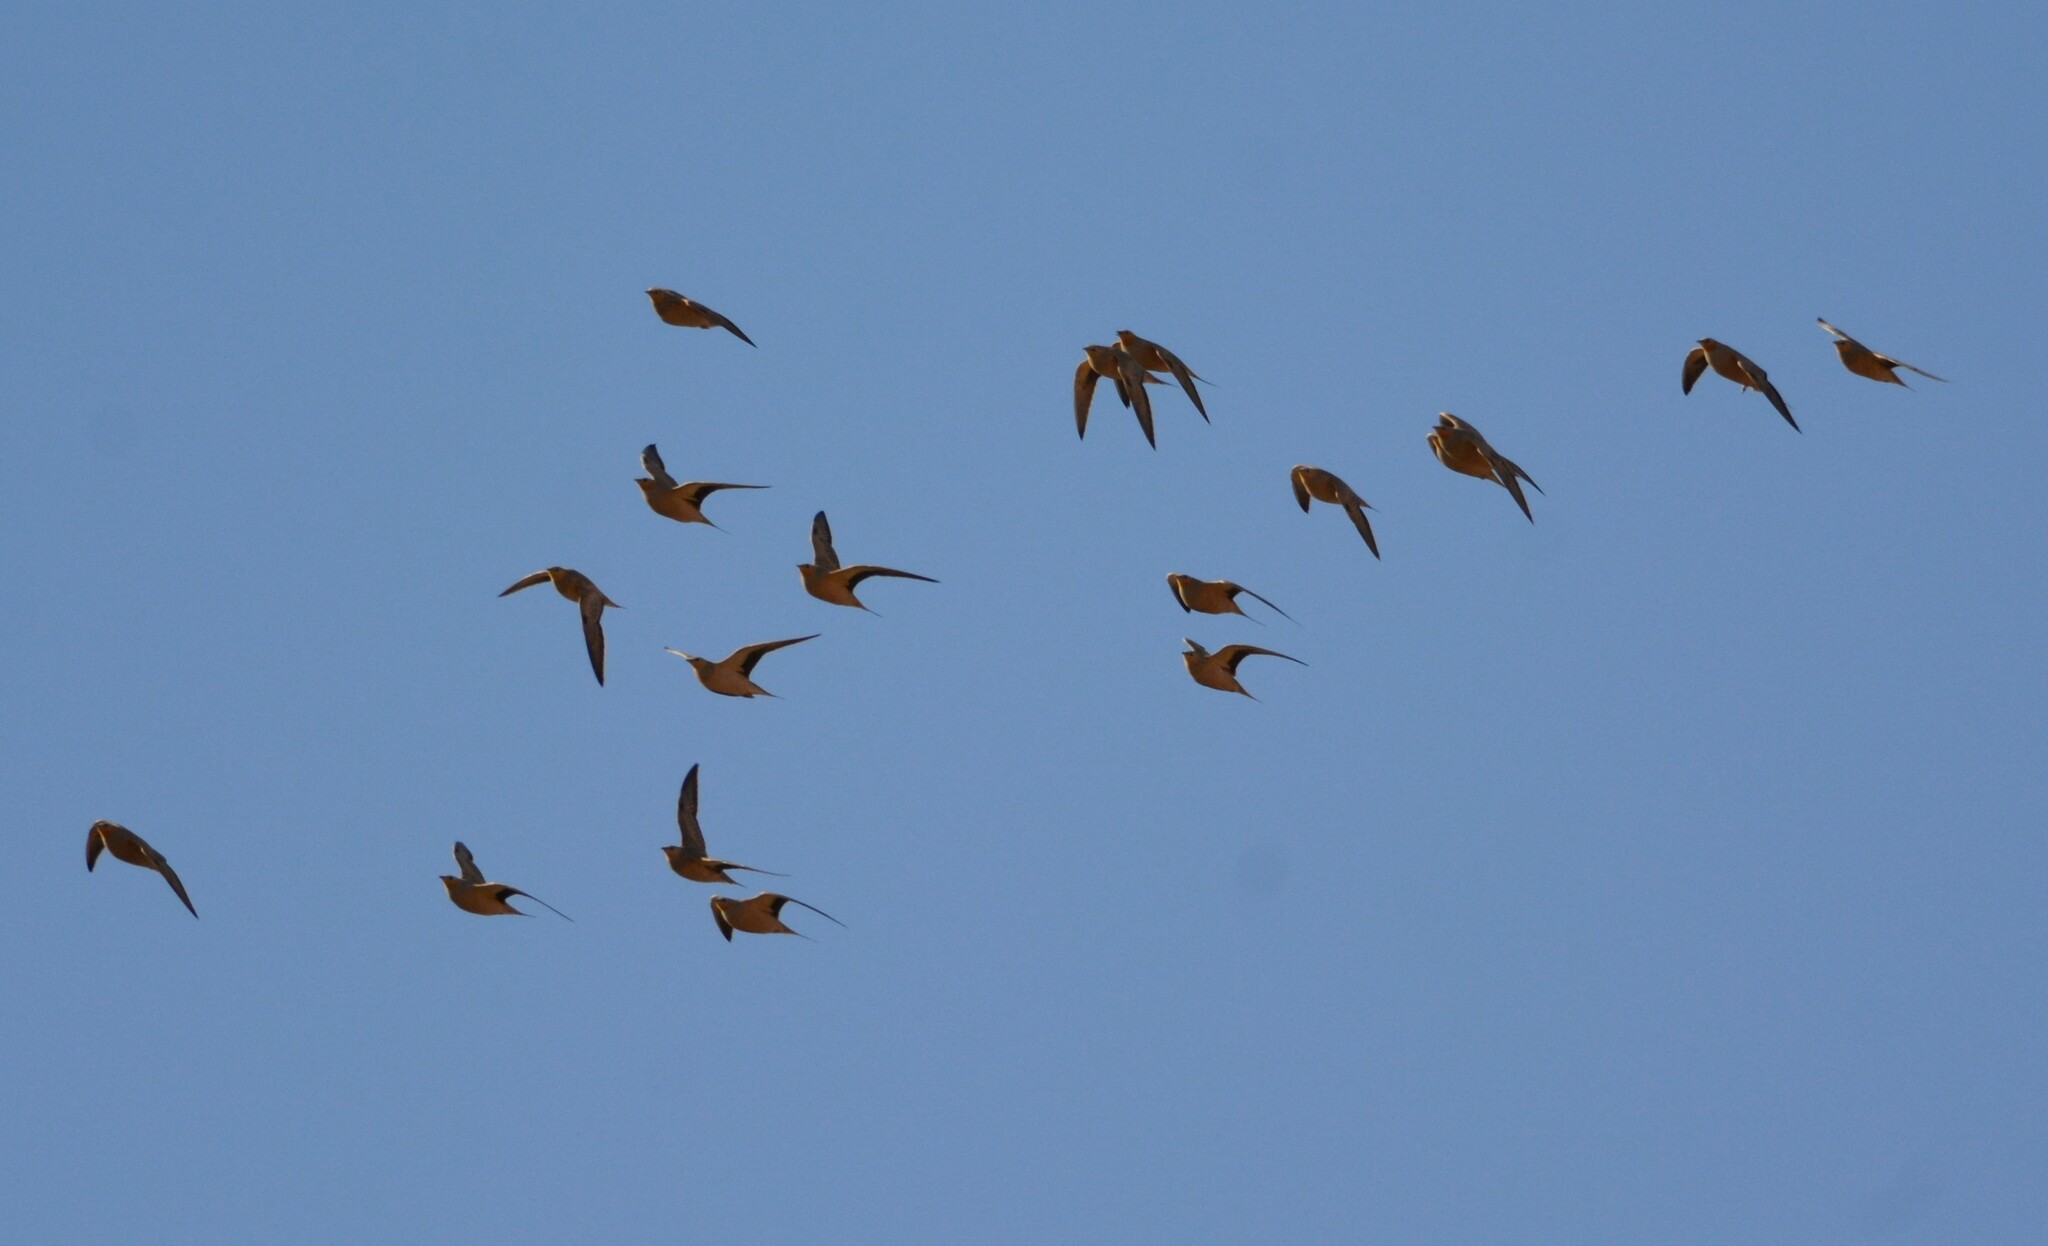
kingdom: Animalia
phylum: Chordata
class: Aves
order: Pteroclidiformes
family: Pteroclididae
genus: Pterocles
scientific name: Pterocles senegallus
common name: Spotted sandgrouse
